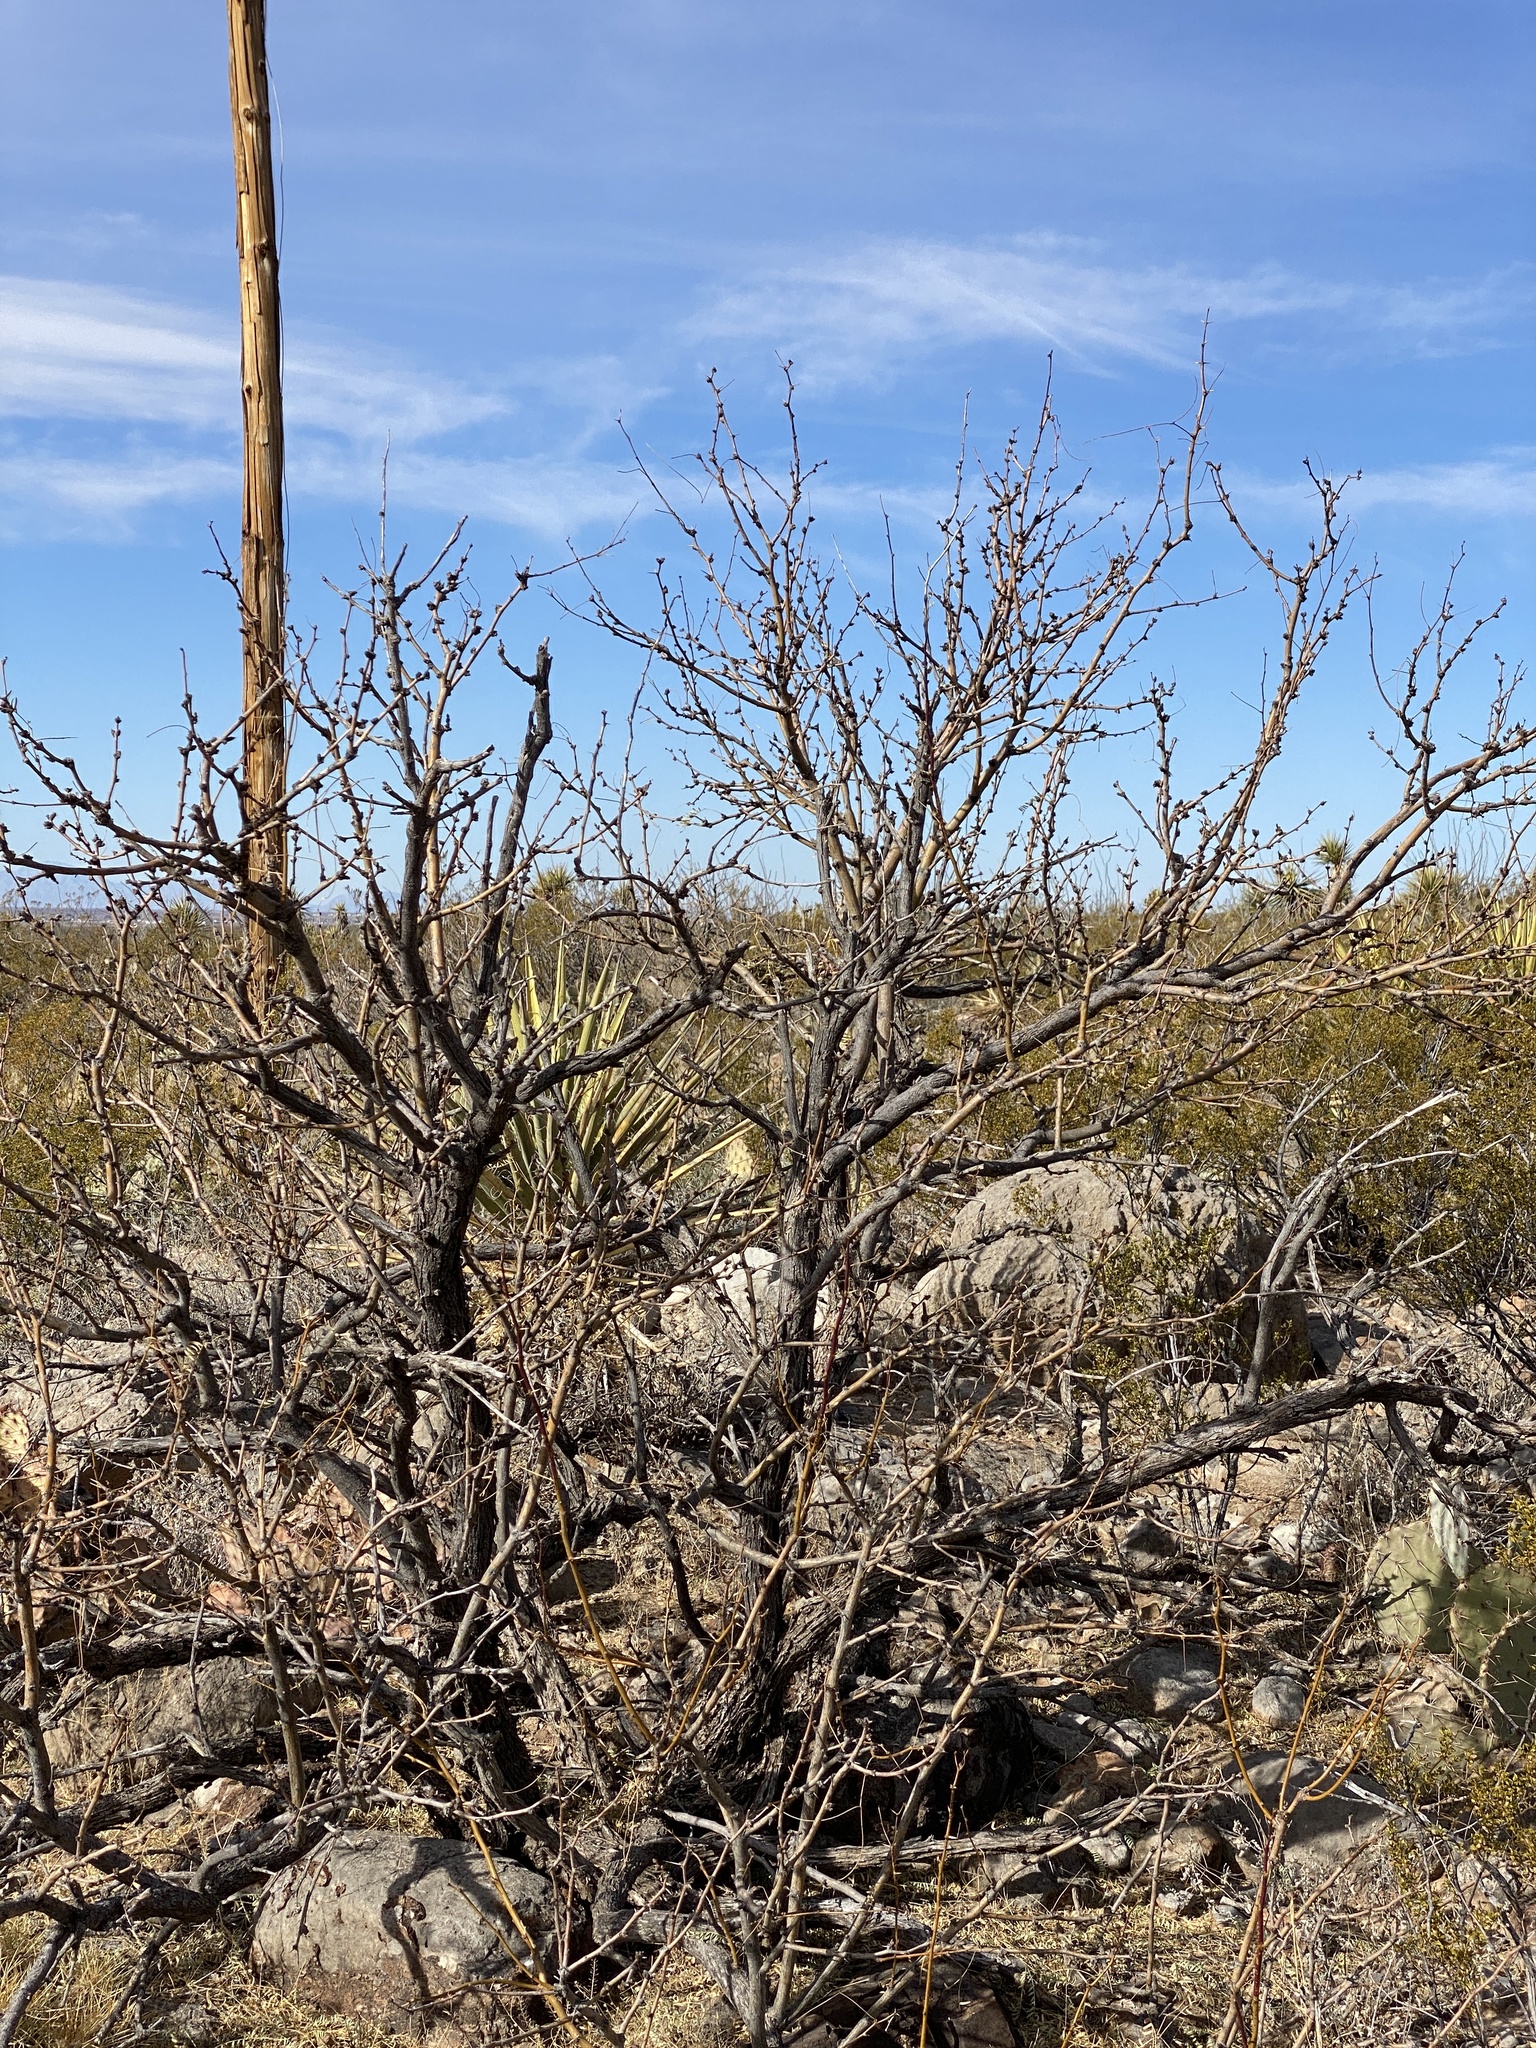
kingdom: Plantae
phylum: Tracheophyta
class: Magnoliopsida
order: Fabales
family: Fabaceae
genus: Prosopis
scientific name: Prosopis glandulosa
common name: Honey mesquite
